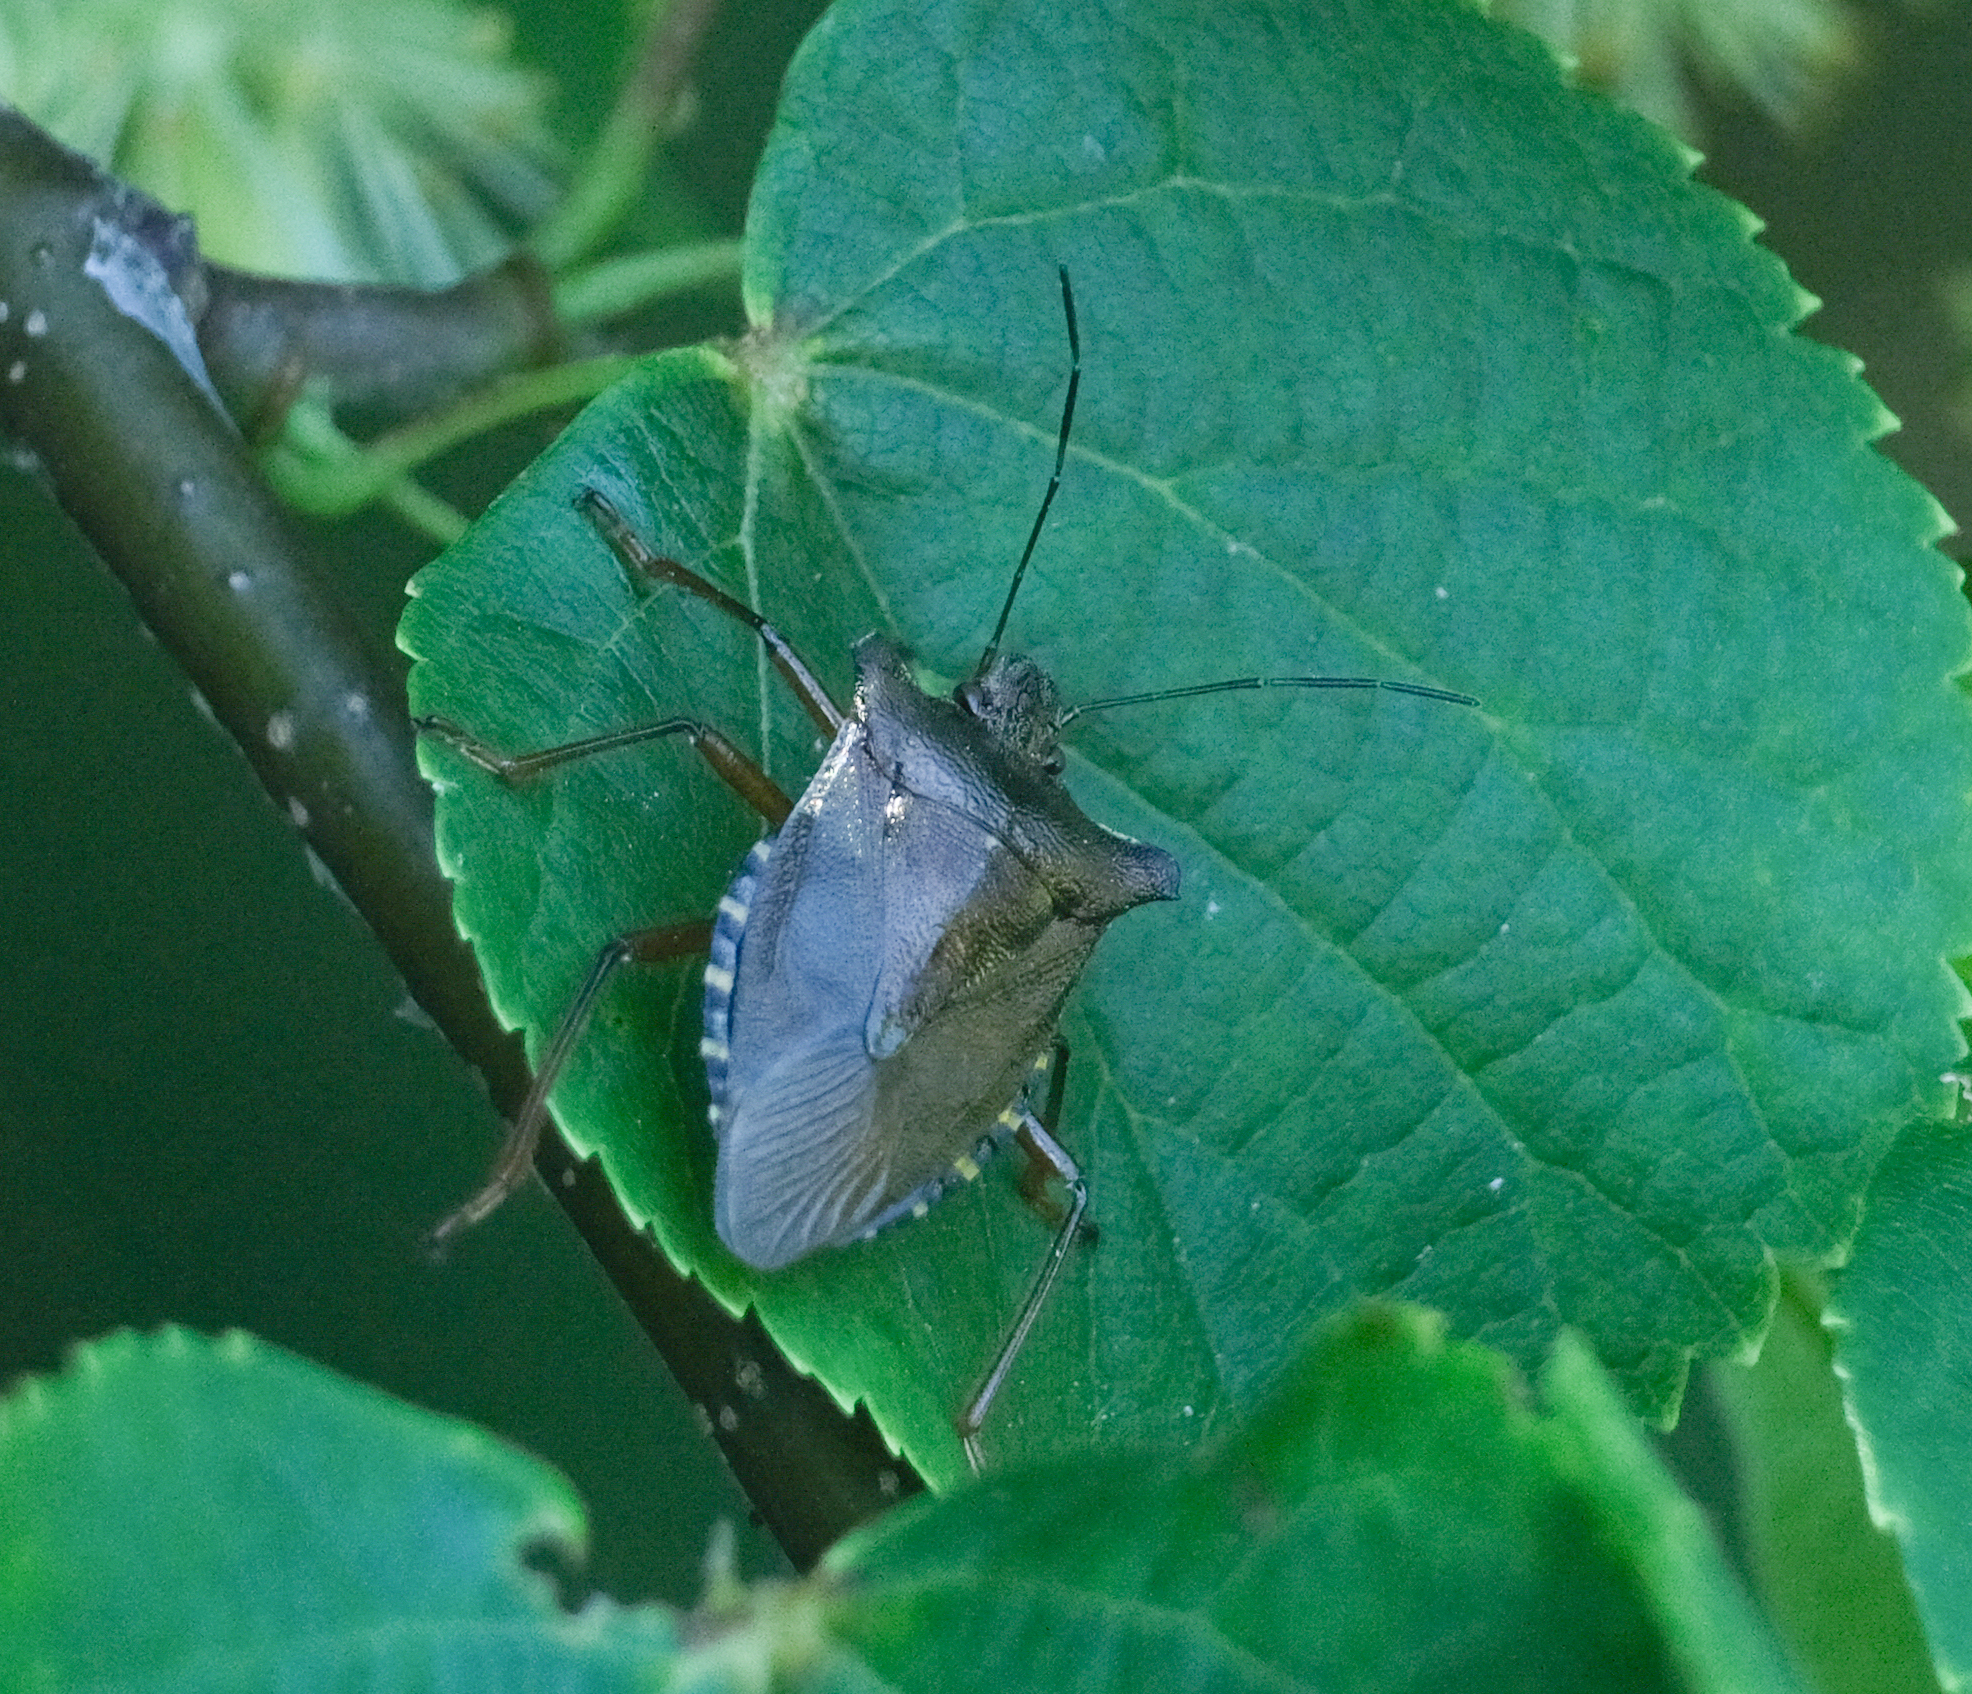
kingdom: Animalia
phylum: Arthropoda
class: Insecta
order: Hemiptera
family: Pentatomidae
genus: Pentatoma
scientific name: Pentatoma rufipes
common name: Forest bug
